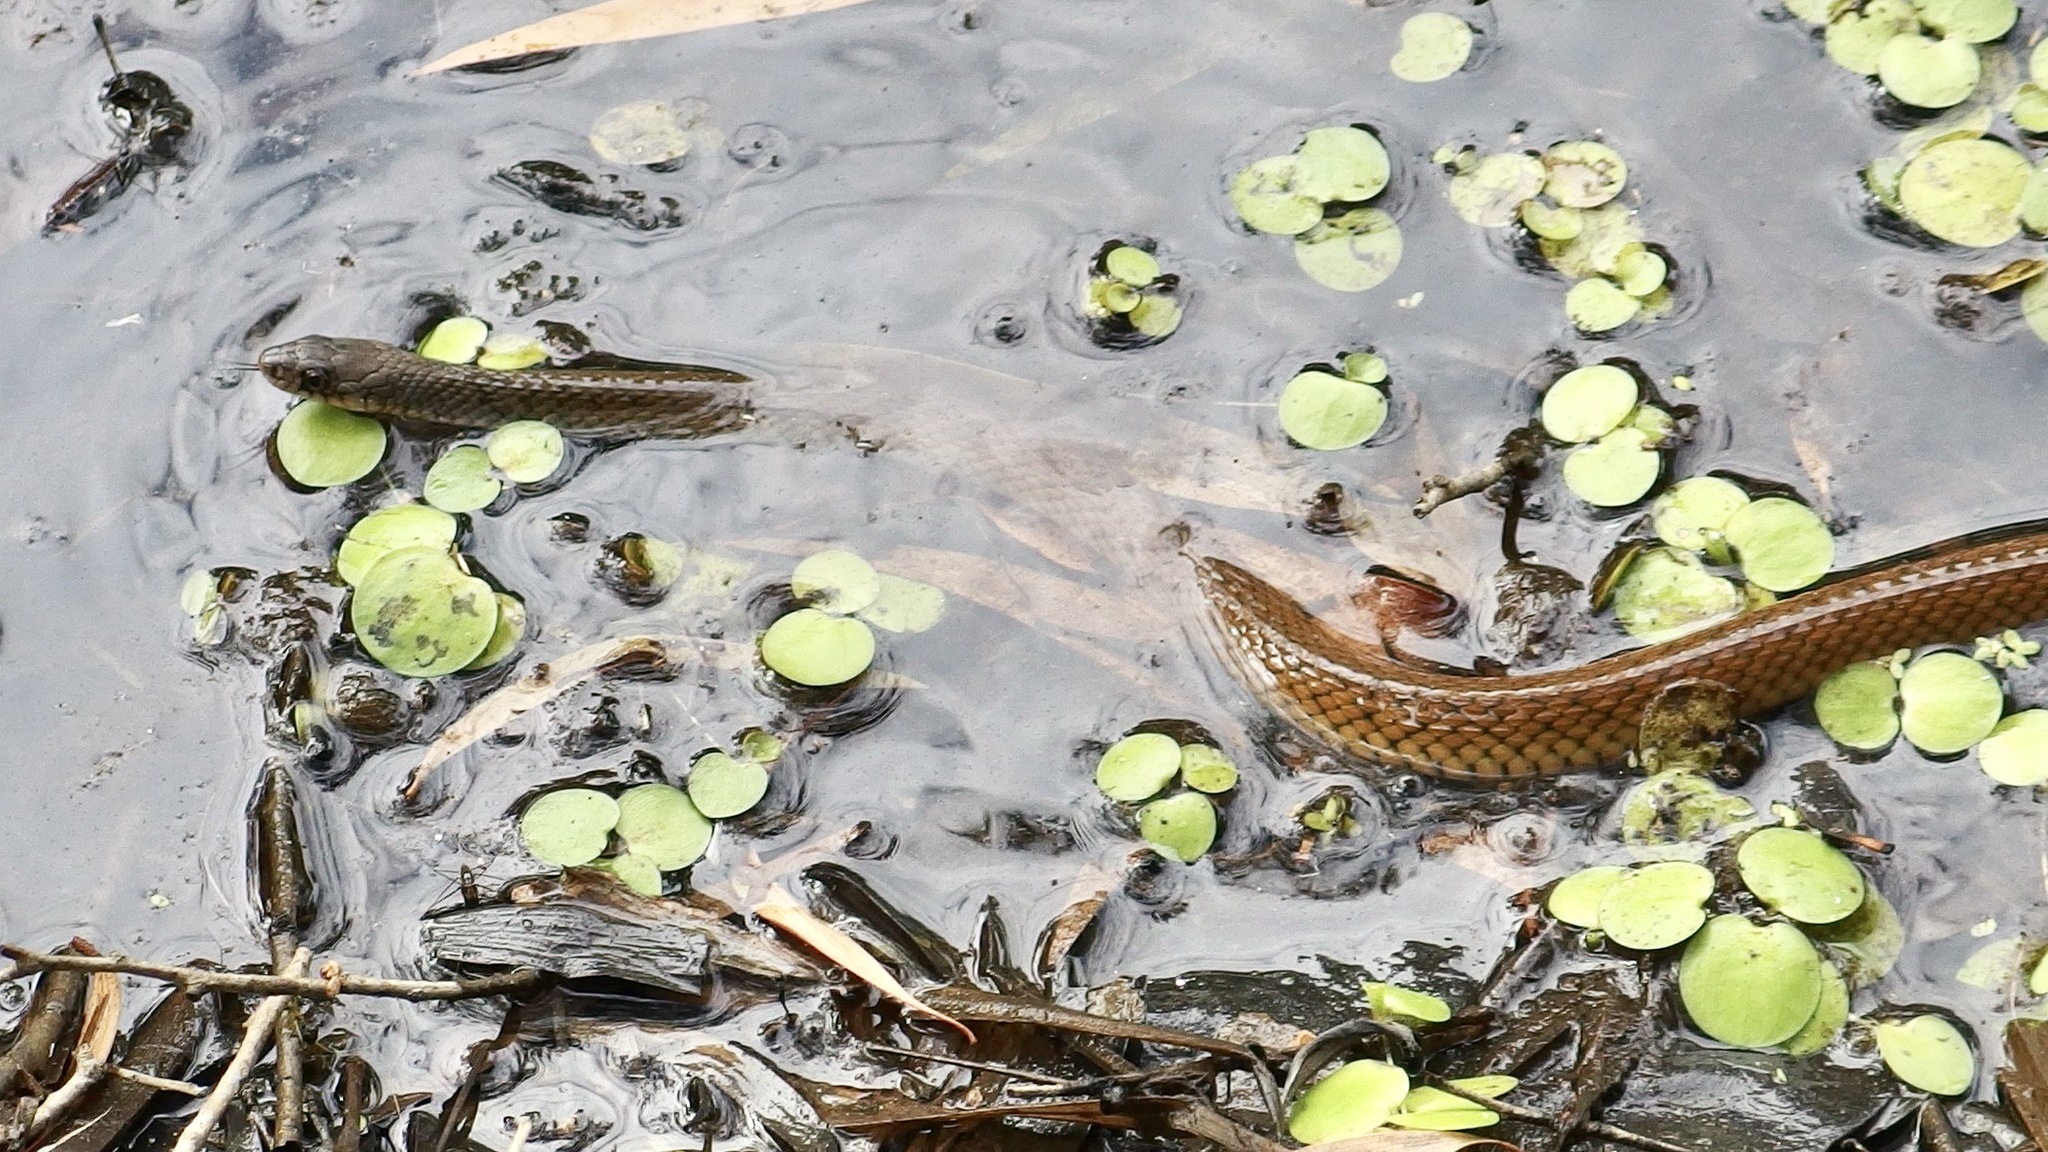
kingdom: Animalia
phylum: Chordata
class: Squamata
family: Colubridae
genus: Tropidonophis
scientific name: Tropidonophis mairii
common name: Common keelback
